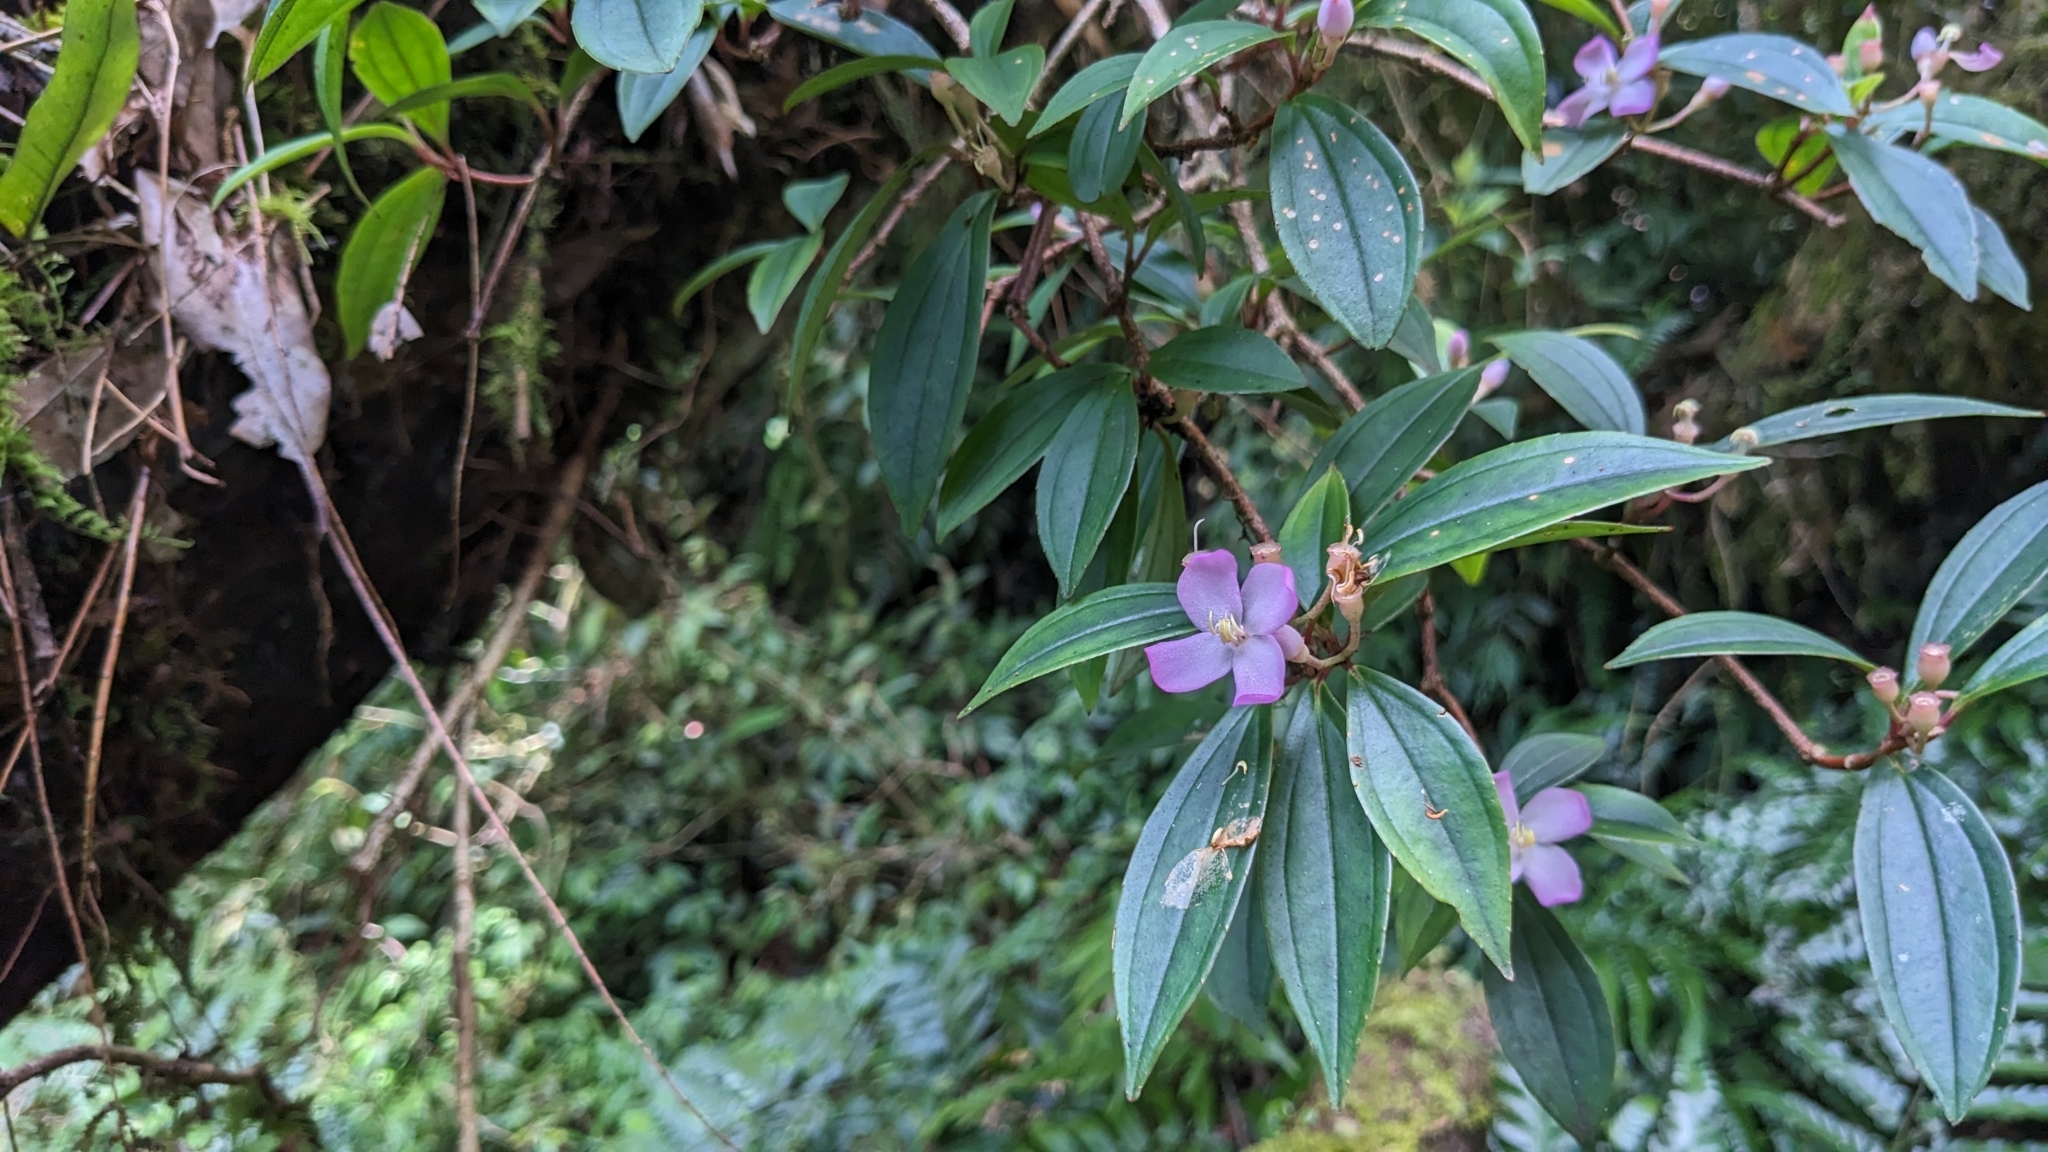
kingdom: Plantae
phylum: Tracheophyta
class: Magnoliopsida
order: Myrtales
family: Melastomataceae
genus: Medinilla
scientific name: Medinilla fengii
